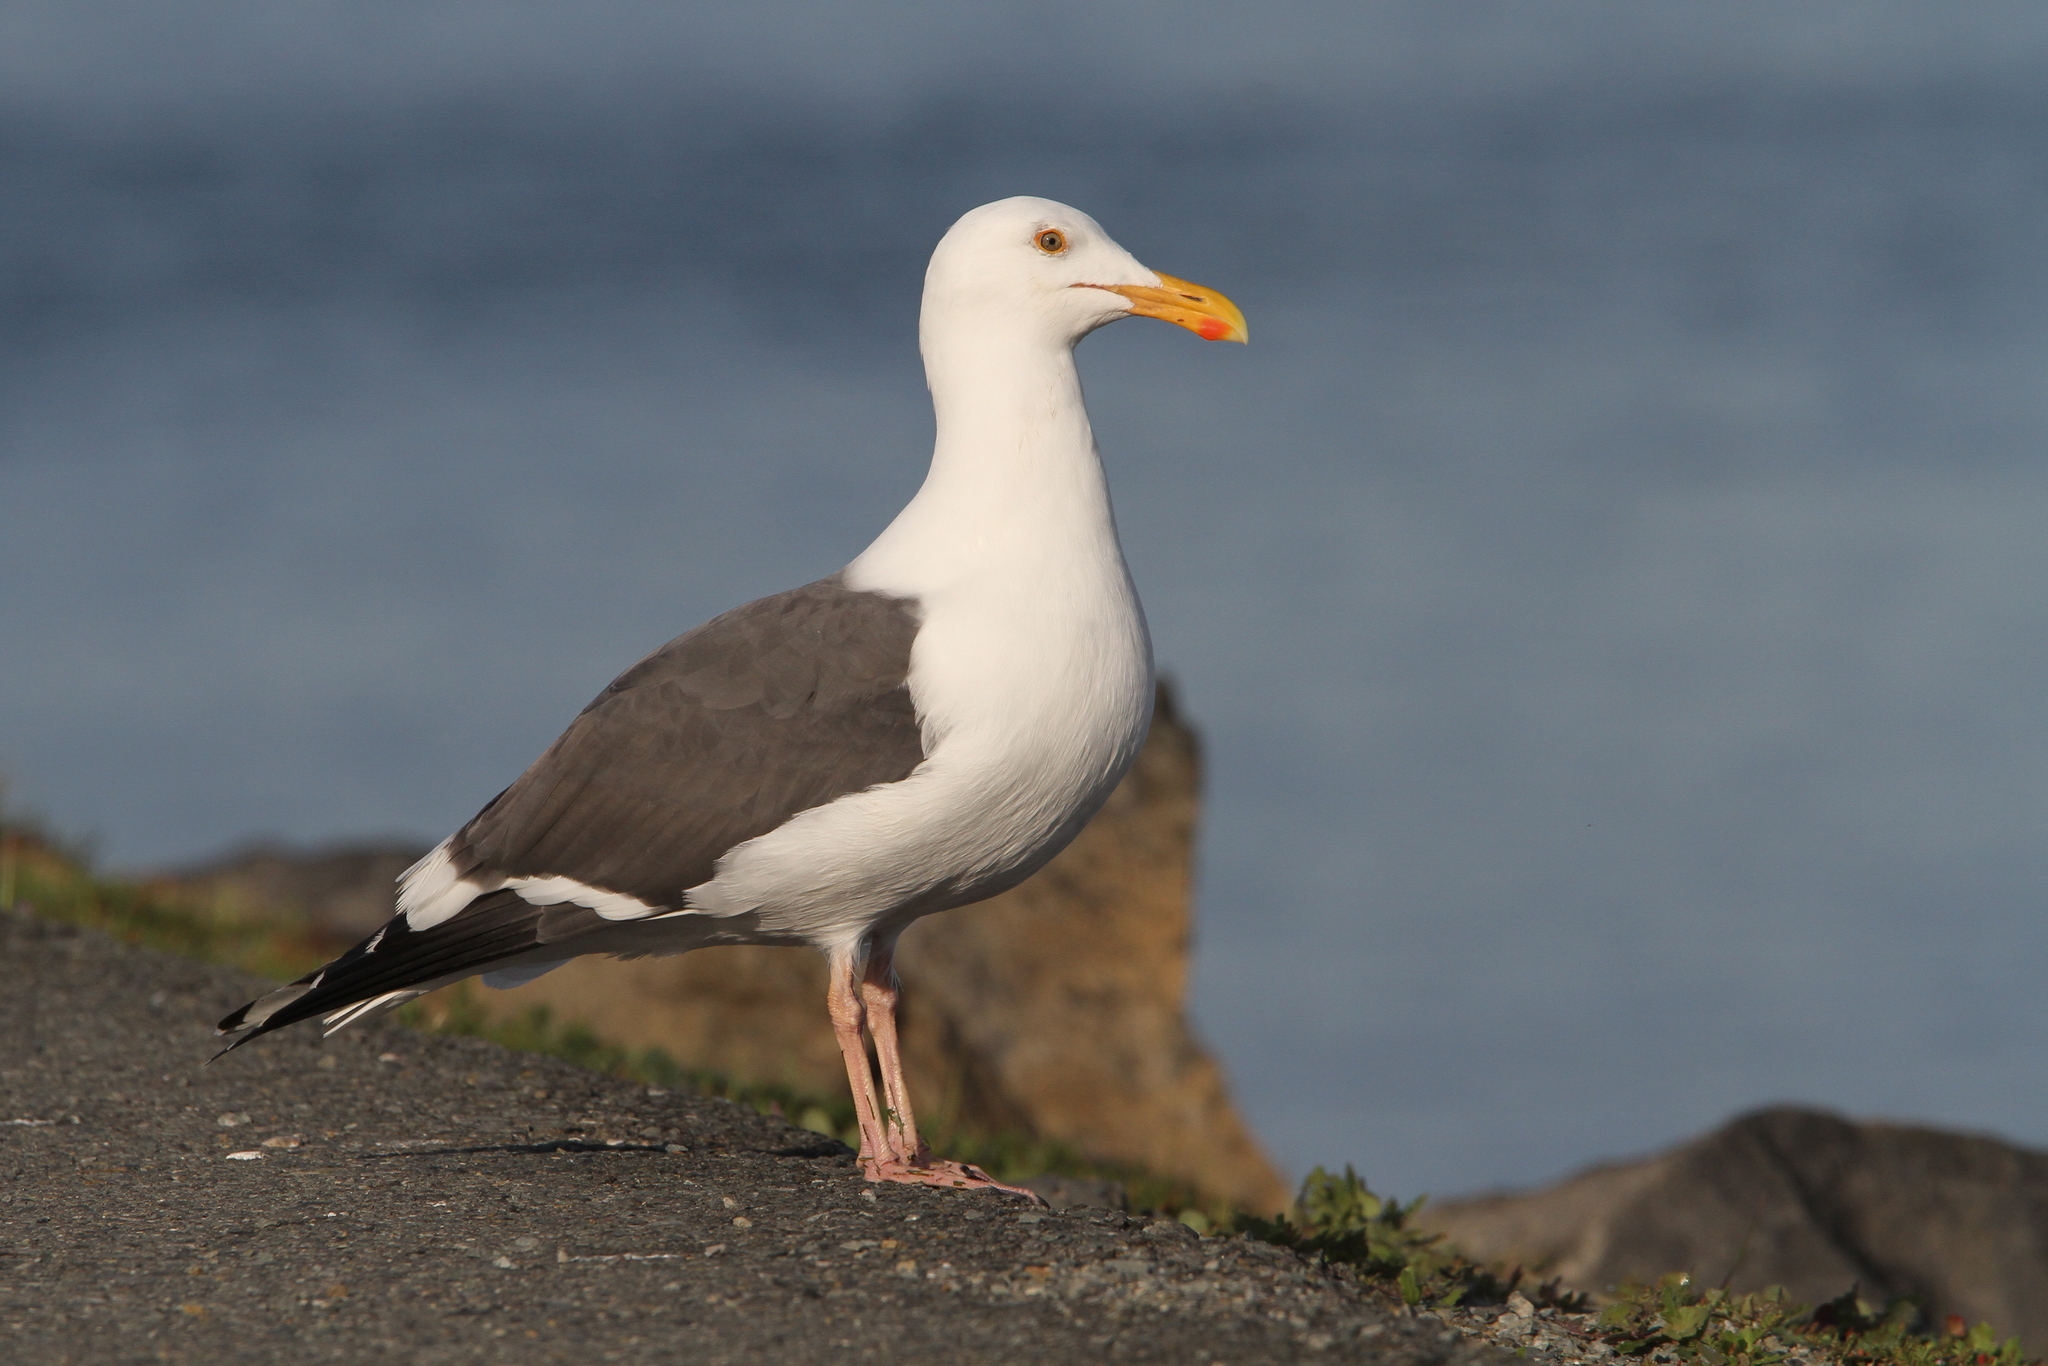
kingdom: Animalia
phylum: Chordata
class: Aves
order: Charadriiformes
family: Laridae
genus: Larus
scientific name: Larus occidentalis
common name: Western gull
